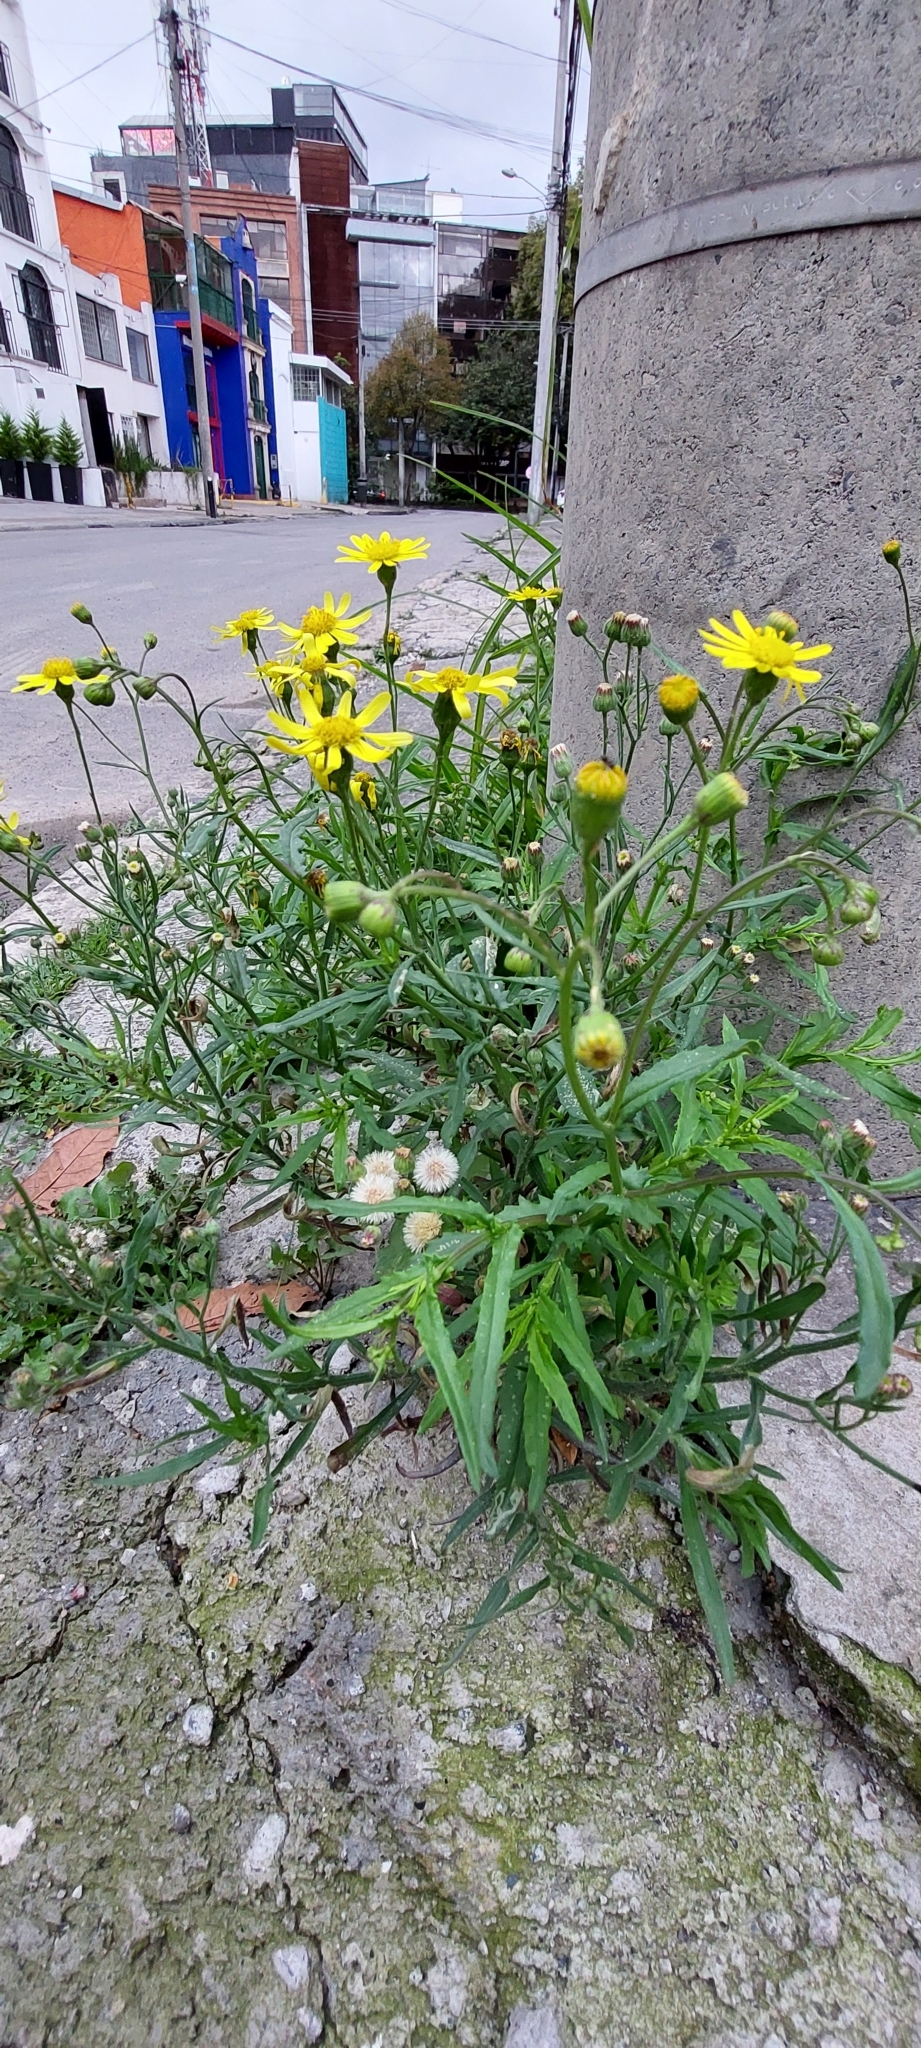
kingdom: Plantae
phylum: Tracheophyta
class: Magnoliopsida
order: Asterales
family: Asteraceae
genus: Senecio
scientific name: Senecio madagascariensis
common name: Madagascar ragwort
